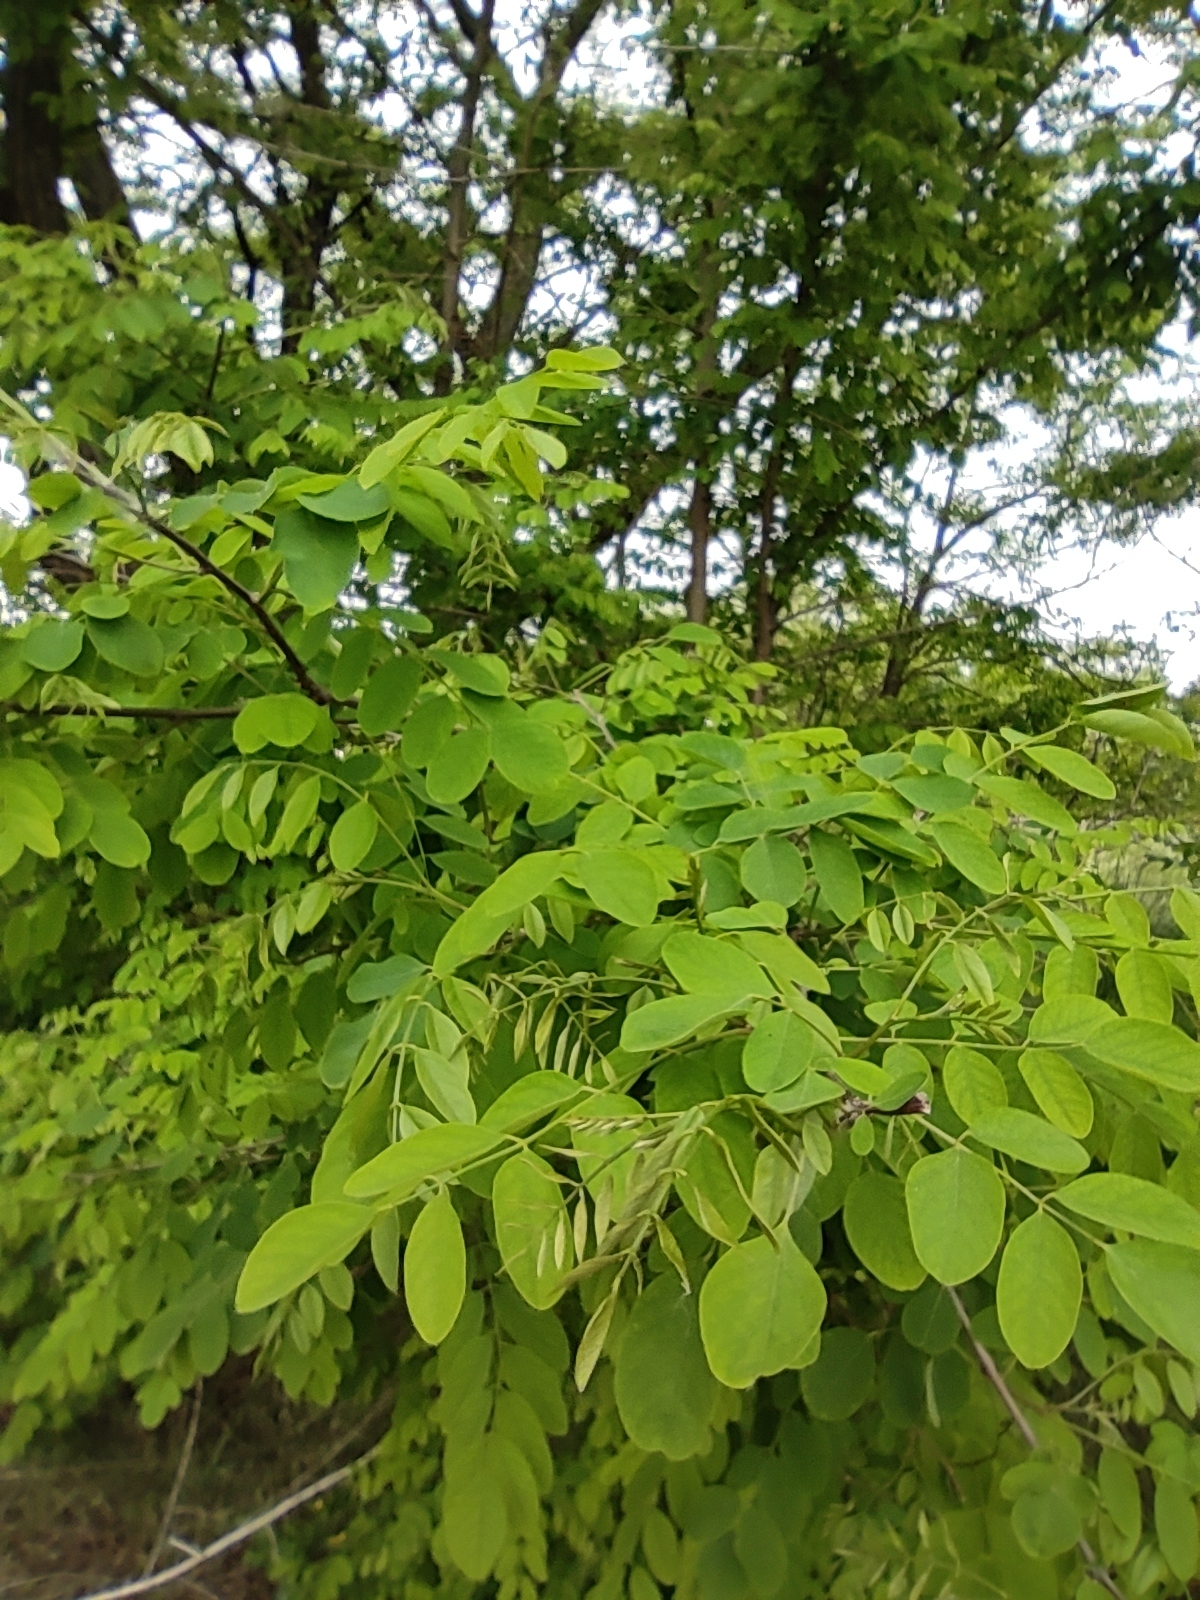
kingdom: Plantae
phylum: Tracheophyta
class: Magnoliopsida
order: Fabales
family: Fabaceae
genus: Robinia
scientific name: Robinia pseudoacacia
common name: Black locust
